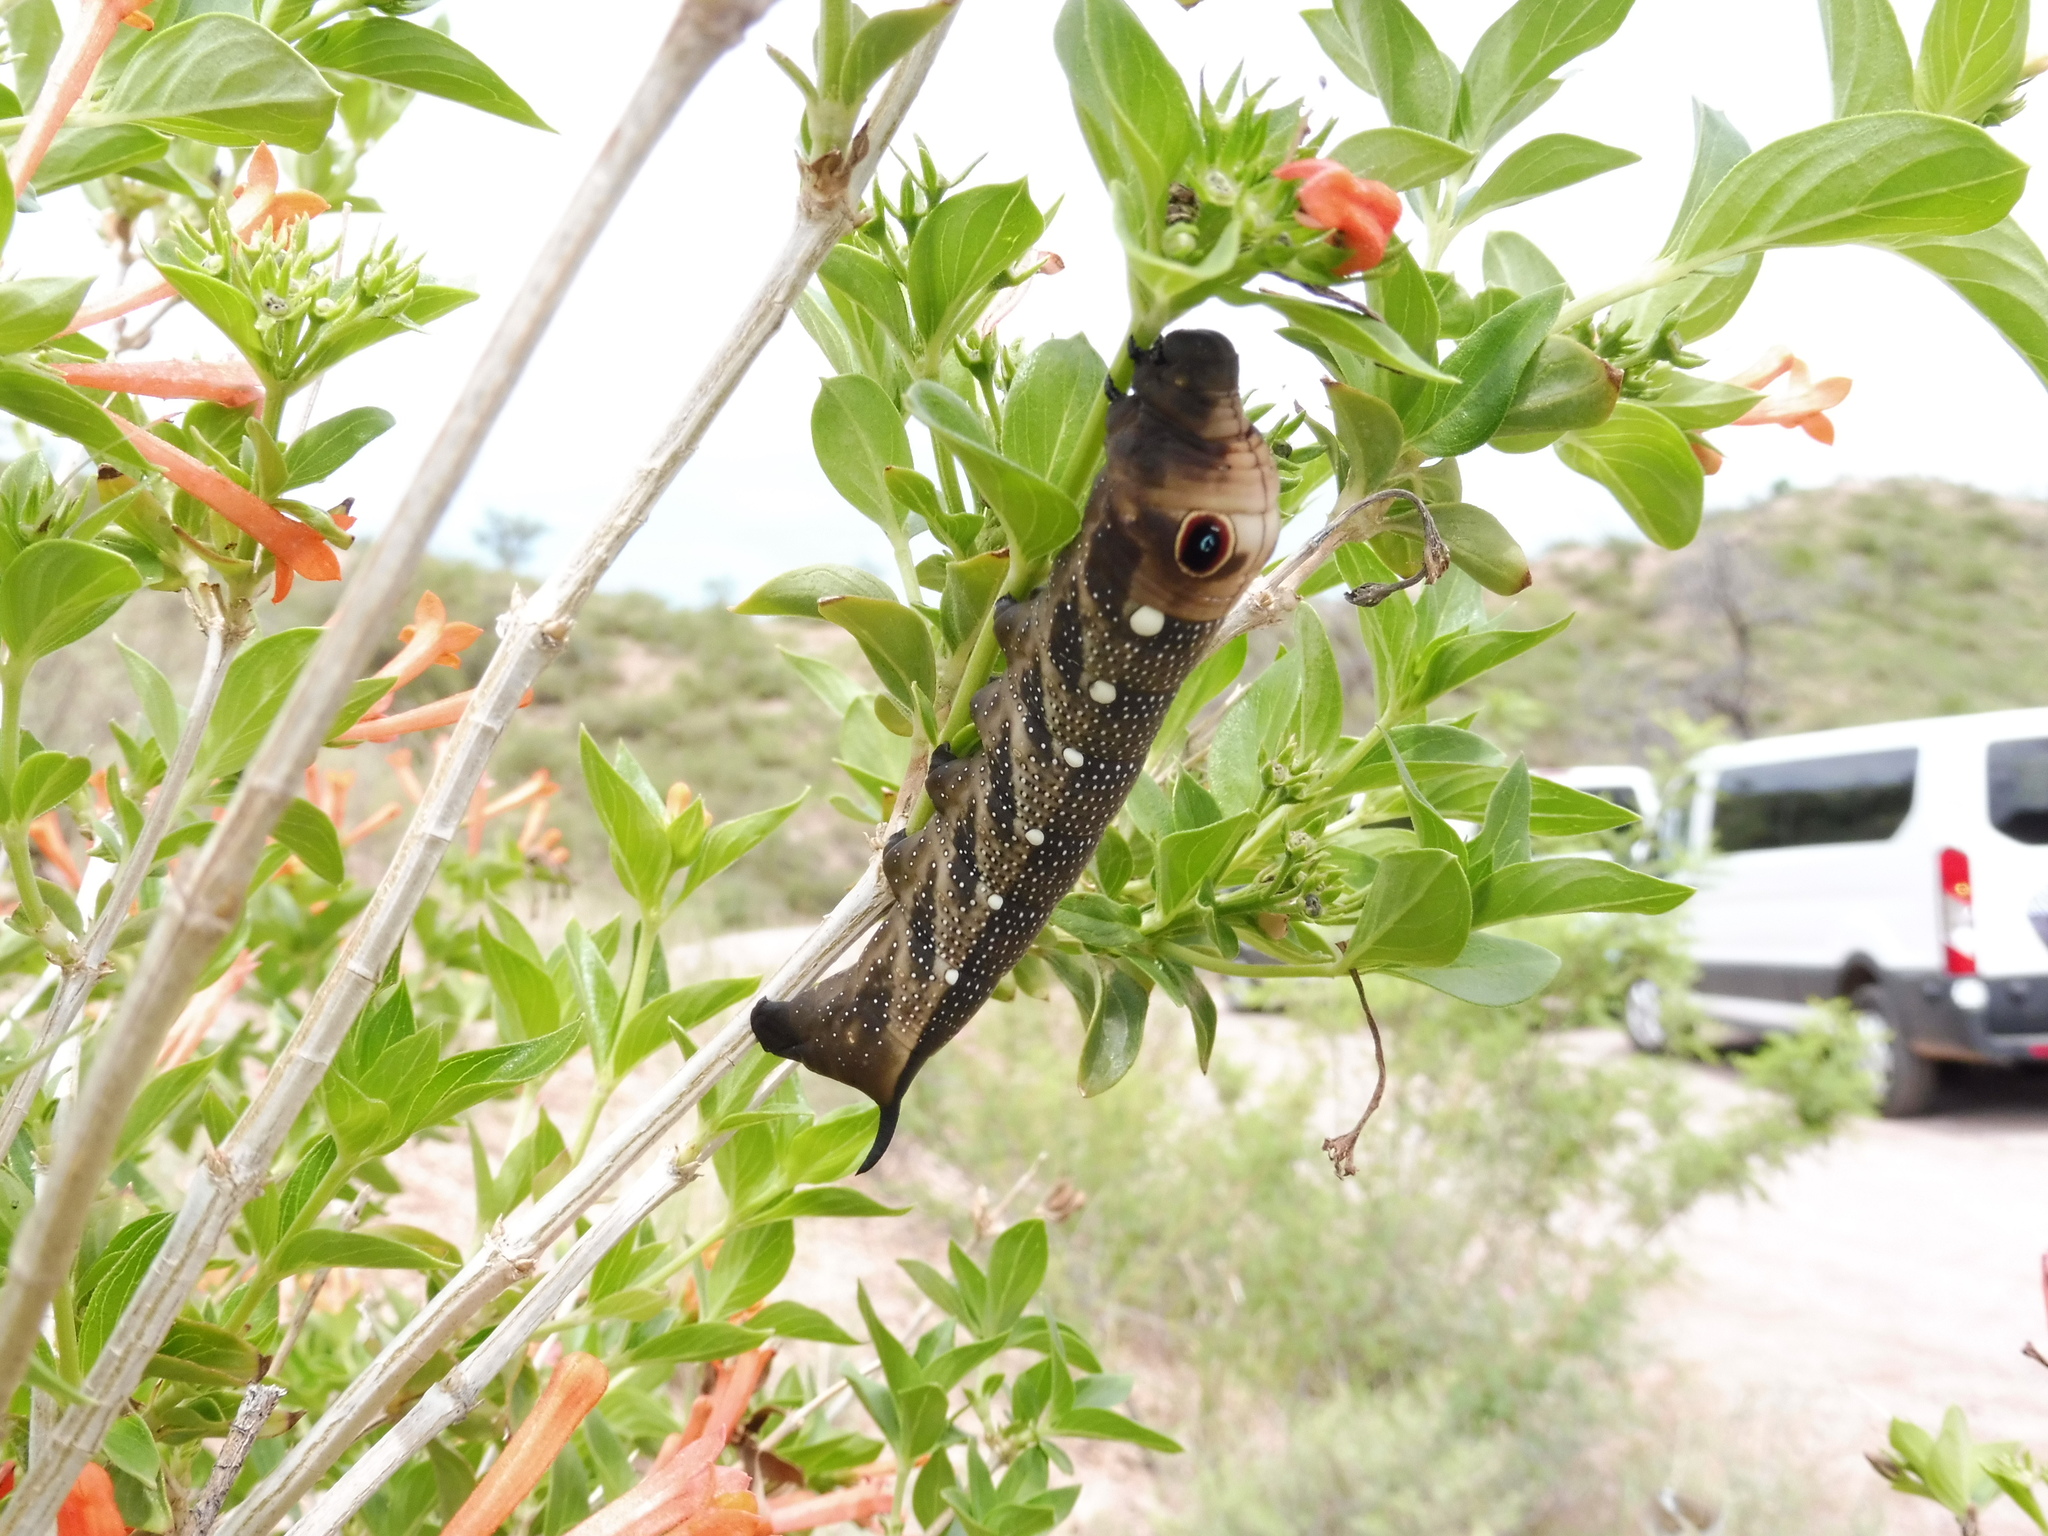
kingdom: Animalia
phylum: Arthropoda
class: Insecta
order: Lepidoptera
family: Sphingidae
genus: Xylophanes
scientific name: Xylophanes falco
